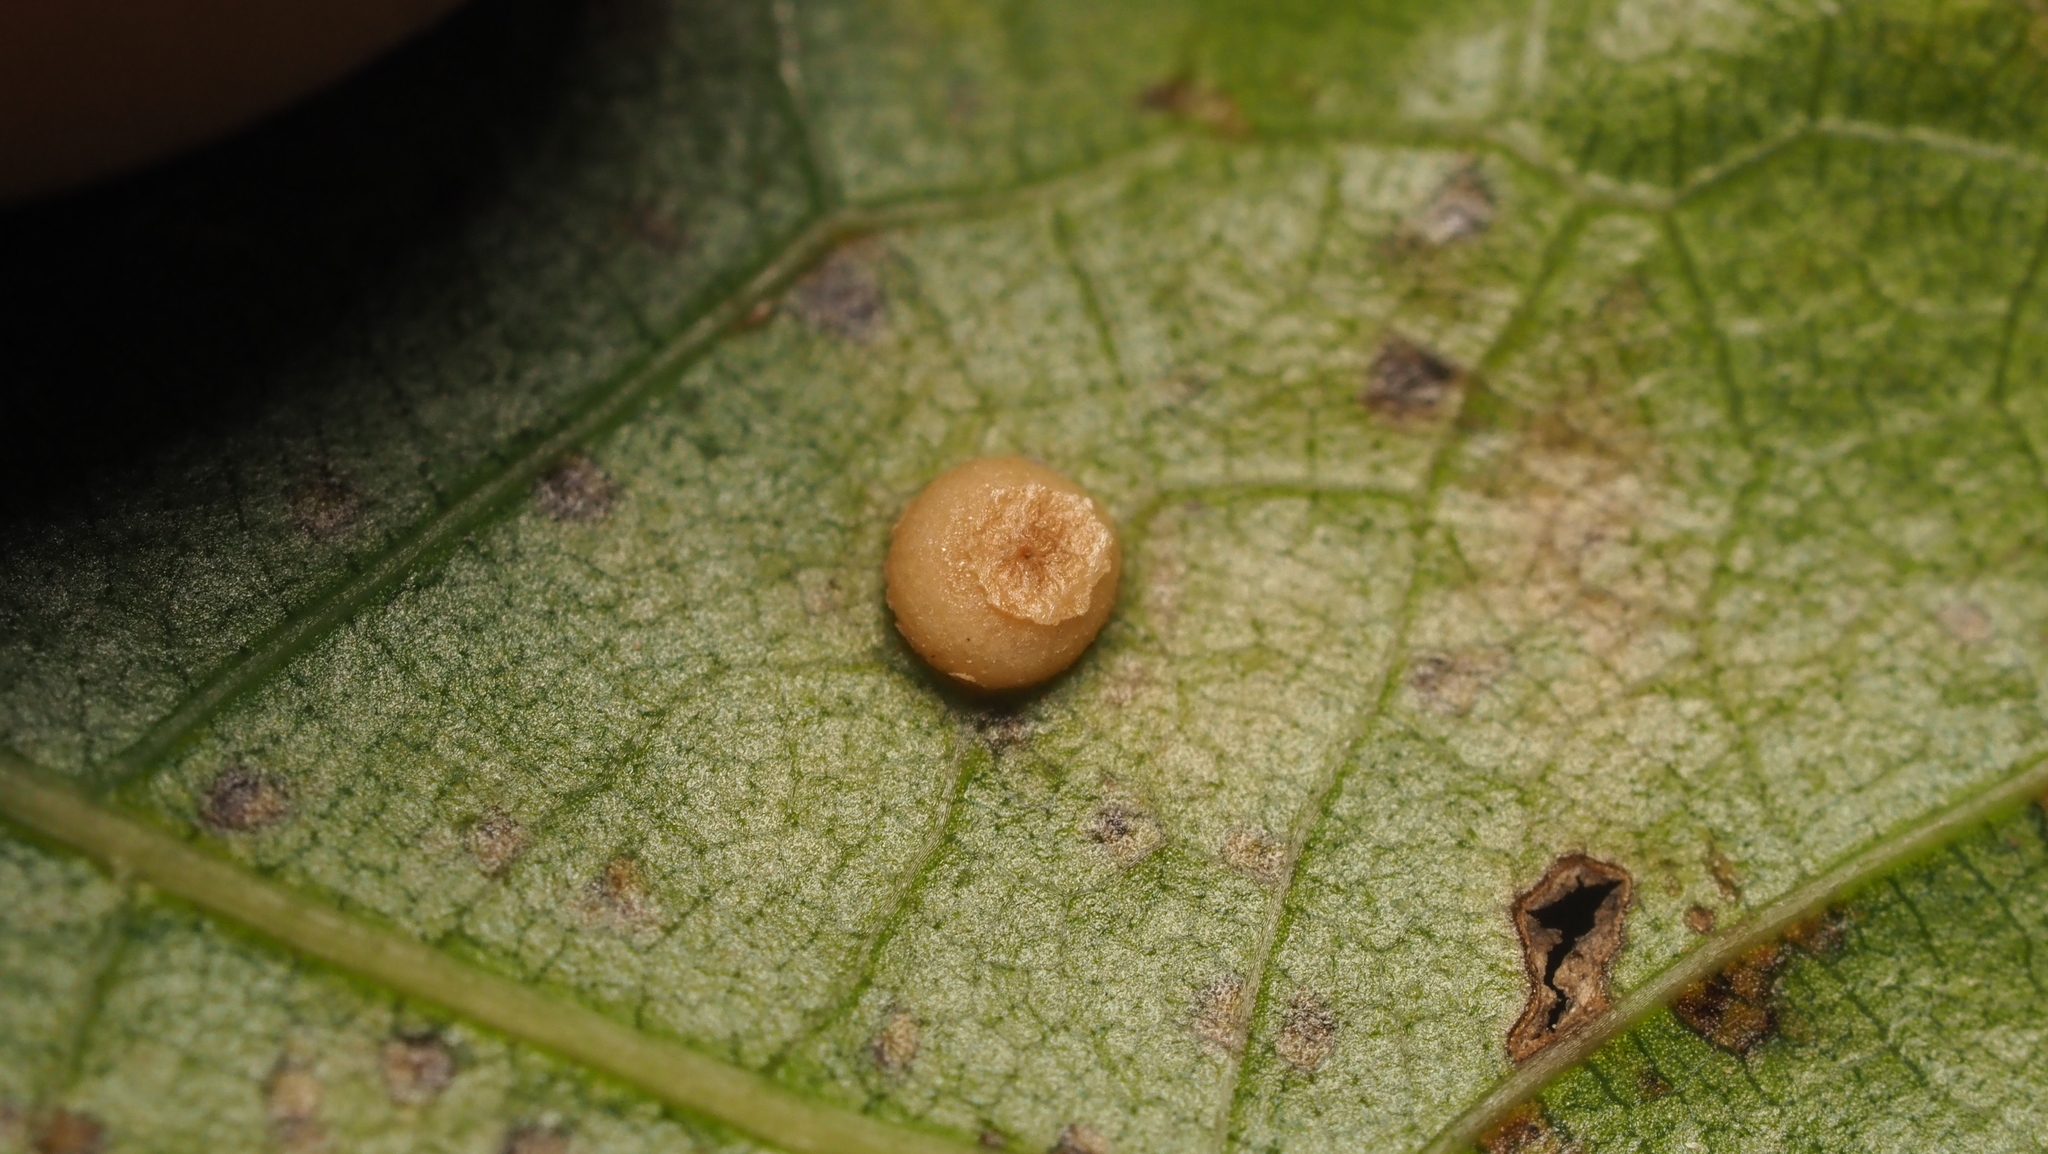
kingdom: Animalia
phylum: Arthropoda
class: Insecta
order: Diptera
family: Cecidomyiidae
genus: Polystepha
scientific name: Polystepha globosa
